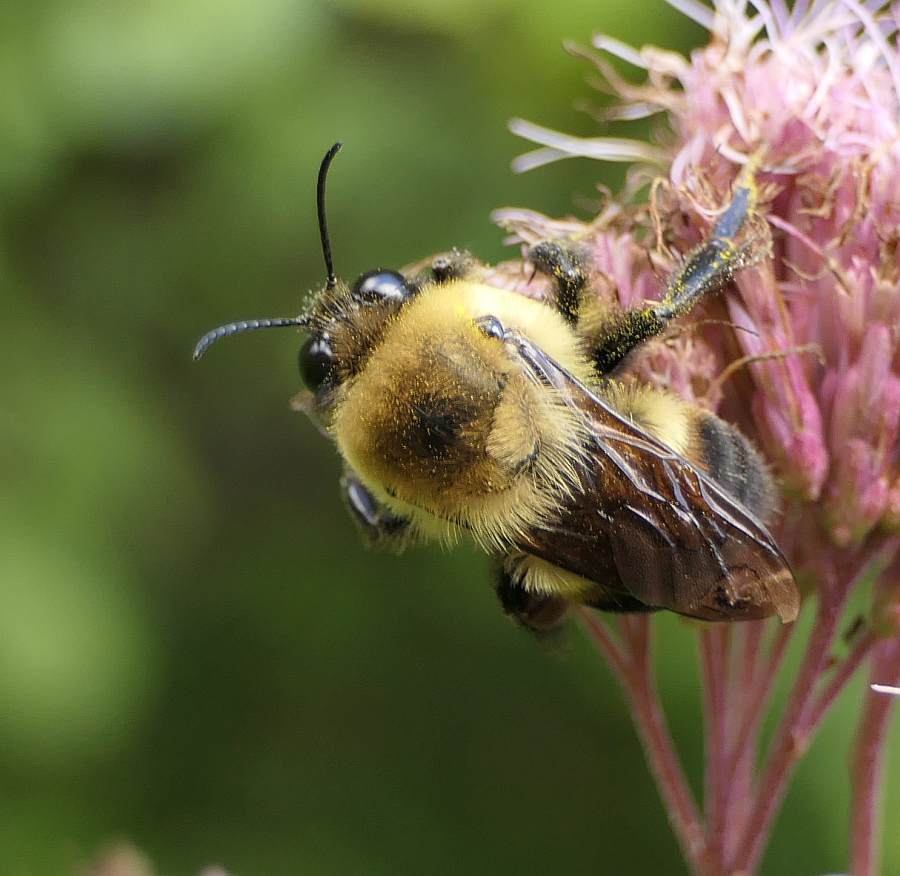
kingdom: Animalia
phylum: Arthropoda
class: Insecta
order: Hymenoptera
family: Apidae
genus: Bombus
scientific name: Bombus griseocollis
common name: Brown-belted bumble bee
